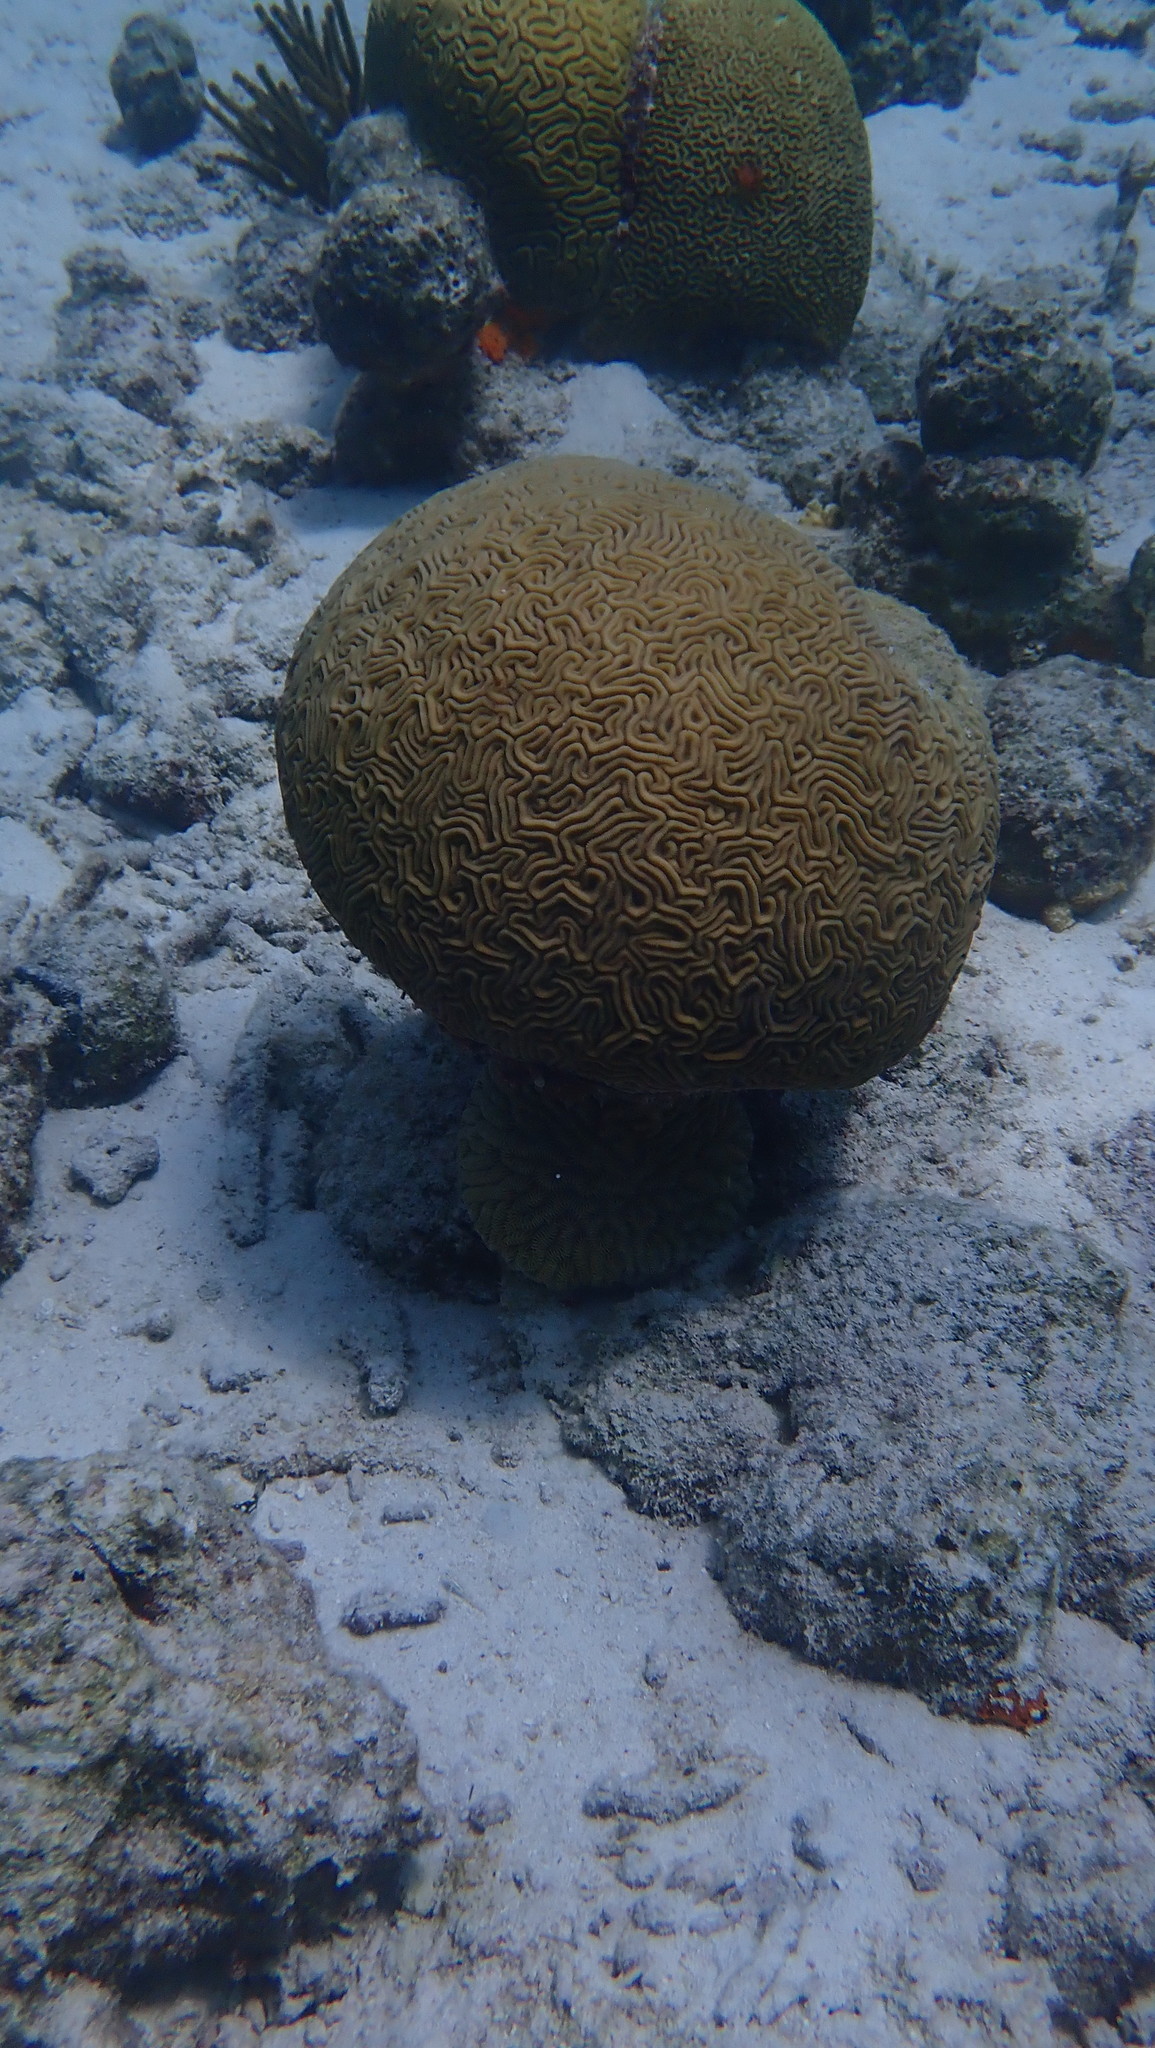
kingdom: Animalia
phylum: Cnidaria
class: Anthozoa
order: Scleractinia
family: Faviidae
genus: Diploria
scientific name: Diploria labyrinthiformis
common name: Grooved brain coral
